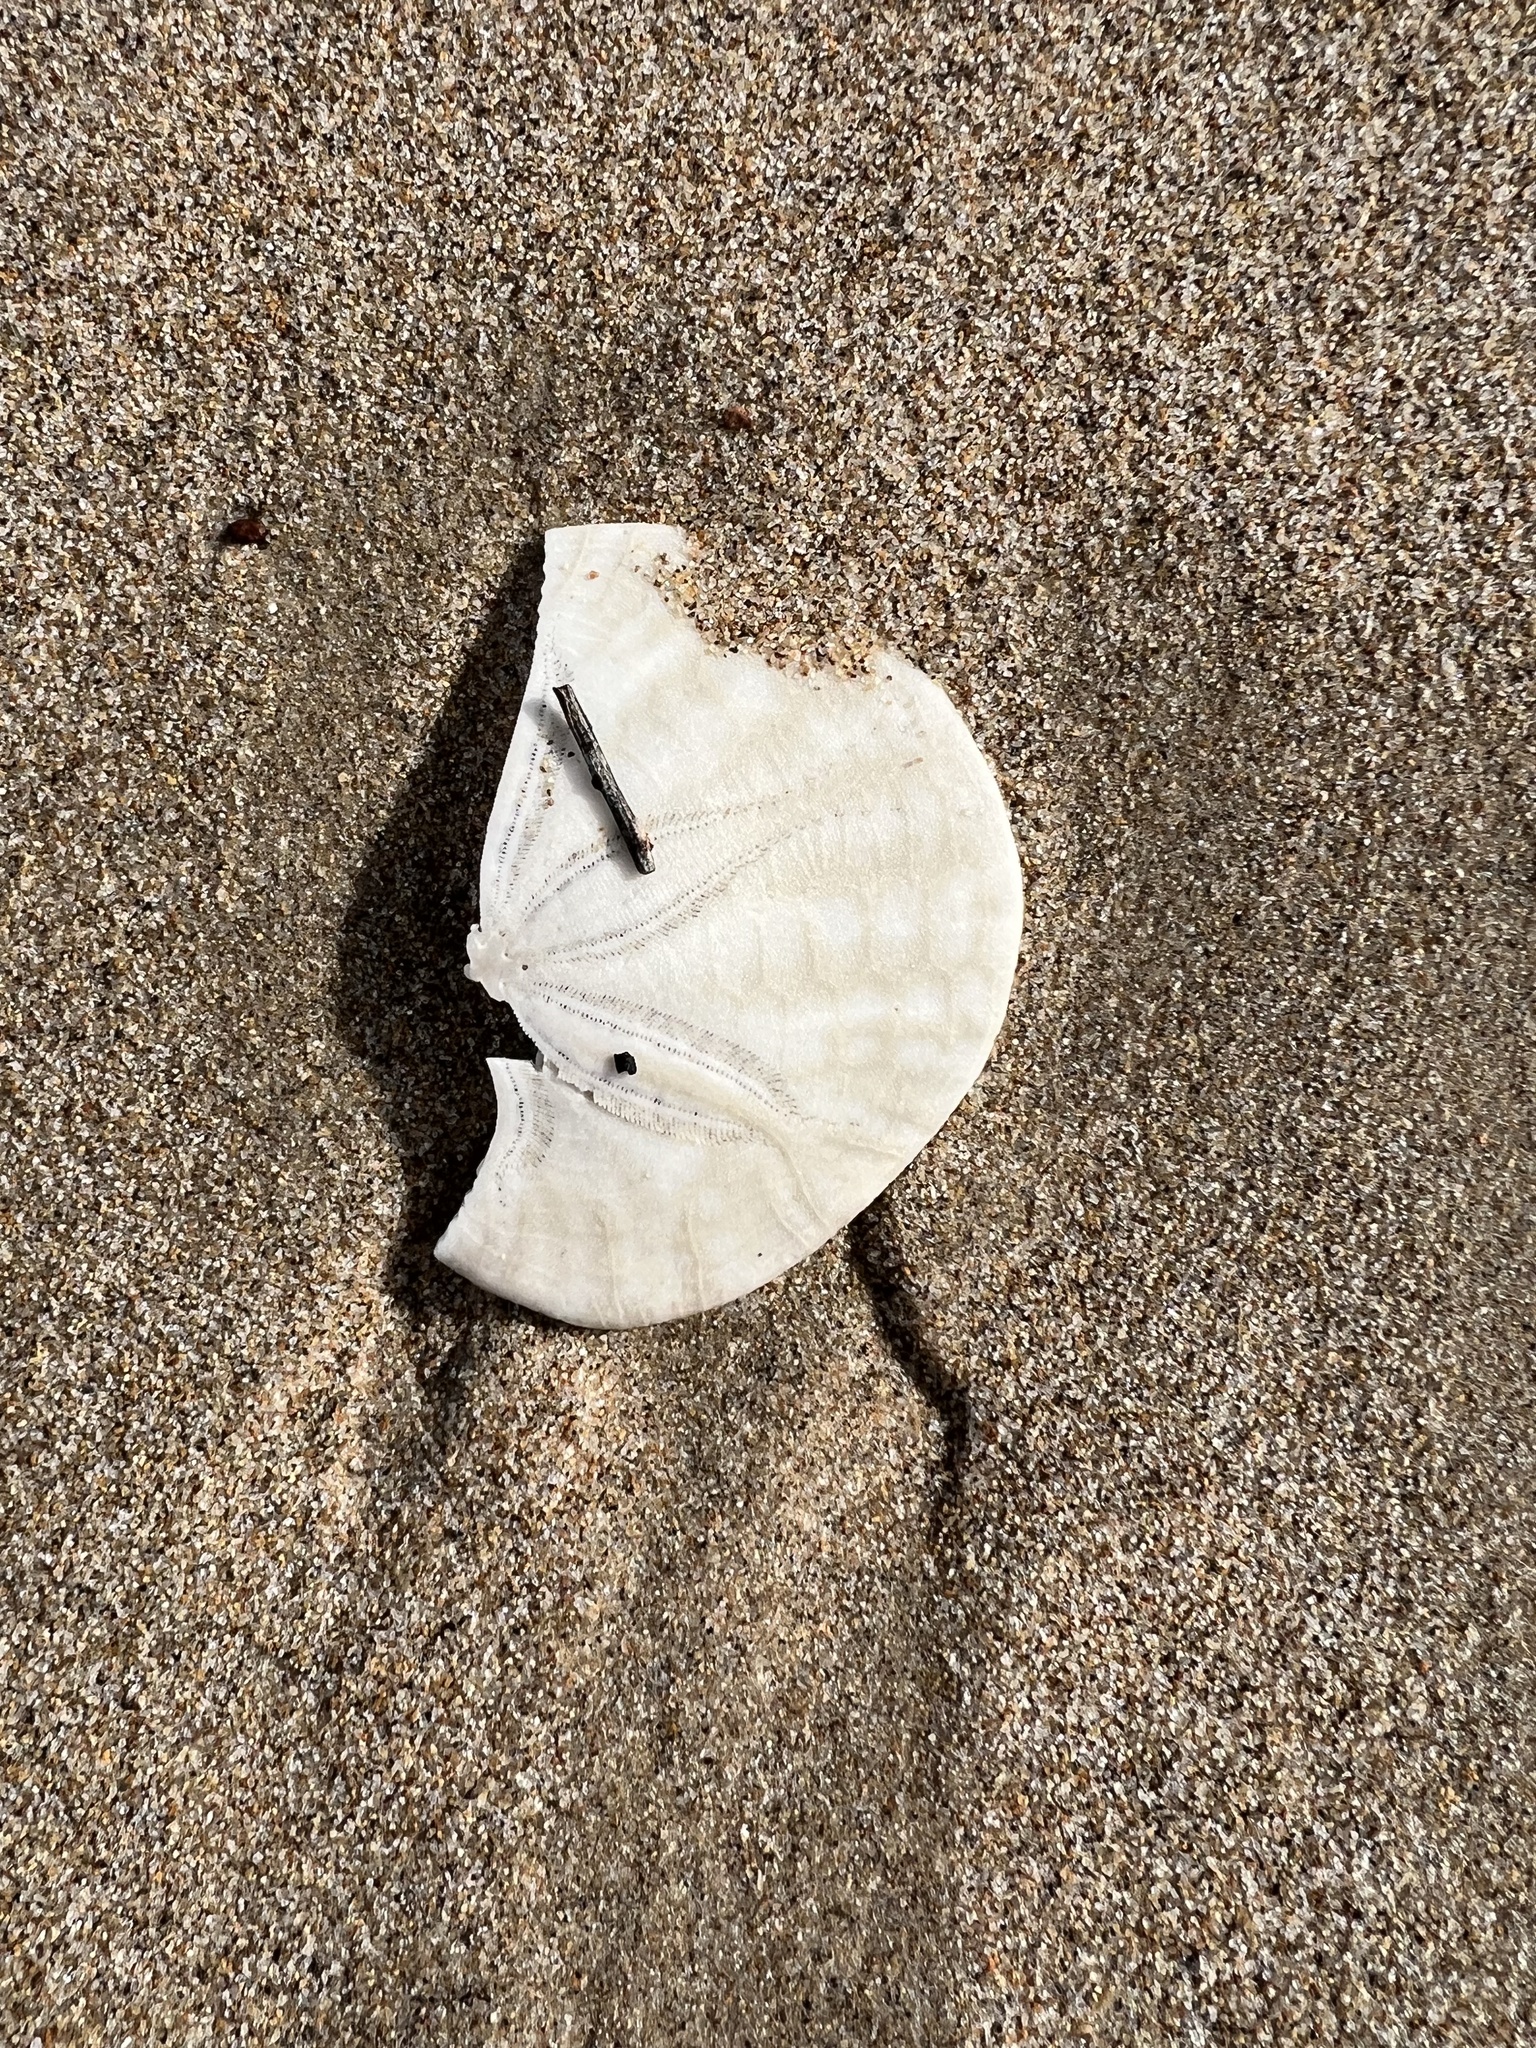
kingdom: Animalia
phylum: Echinodermata
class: Echinoidea
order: Echinolampadacea
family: Dendrasteridae
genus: Dendraster
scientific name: Dendraster excentricus
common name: Eccentric sand dollar sea urchin
